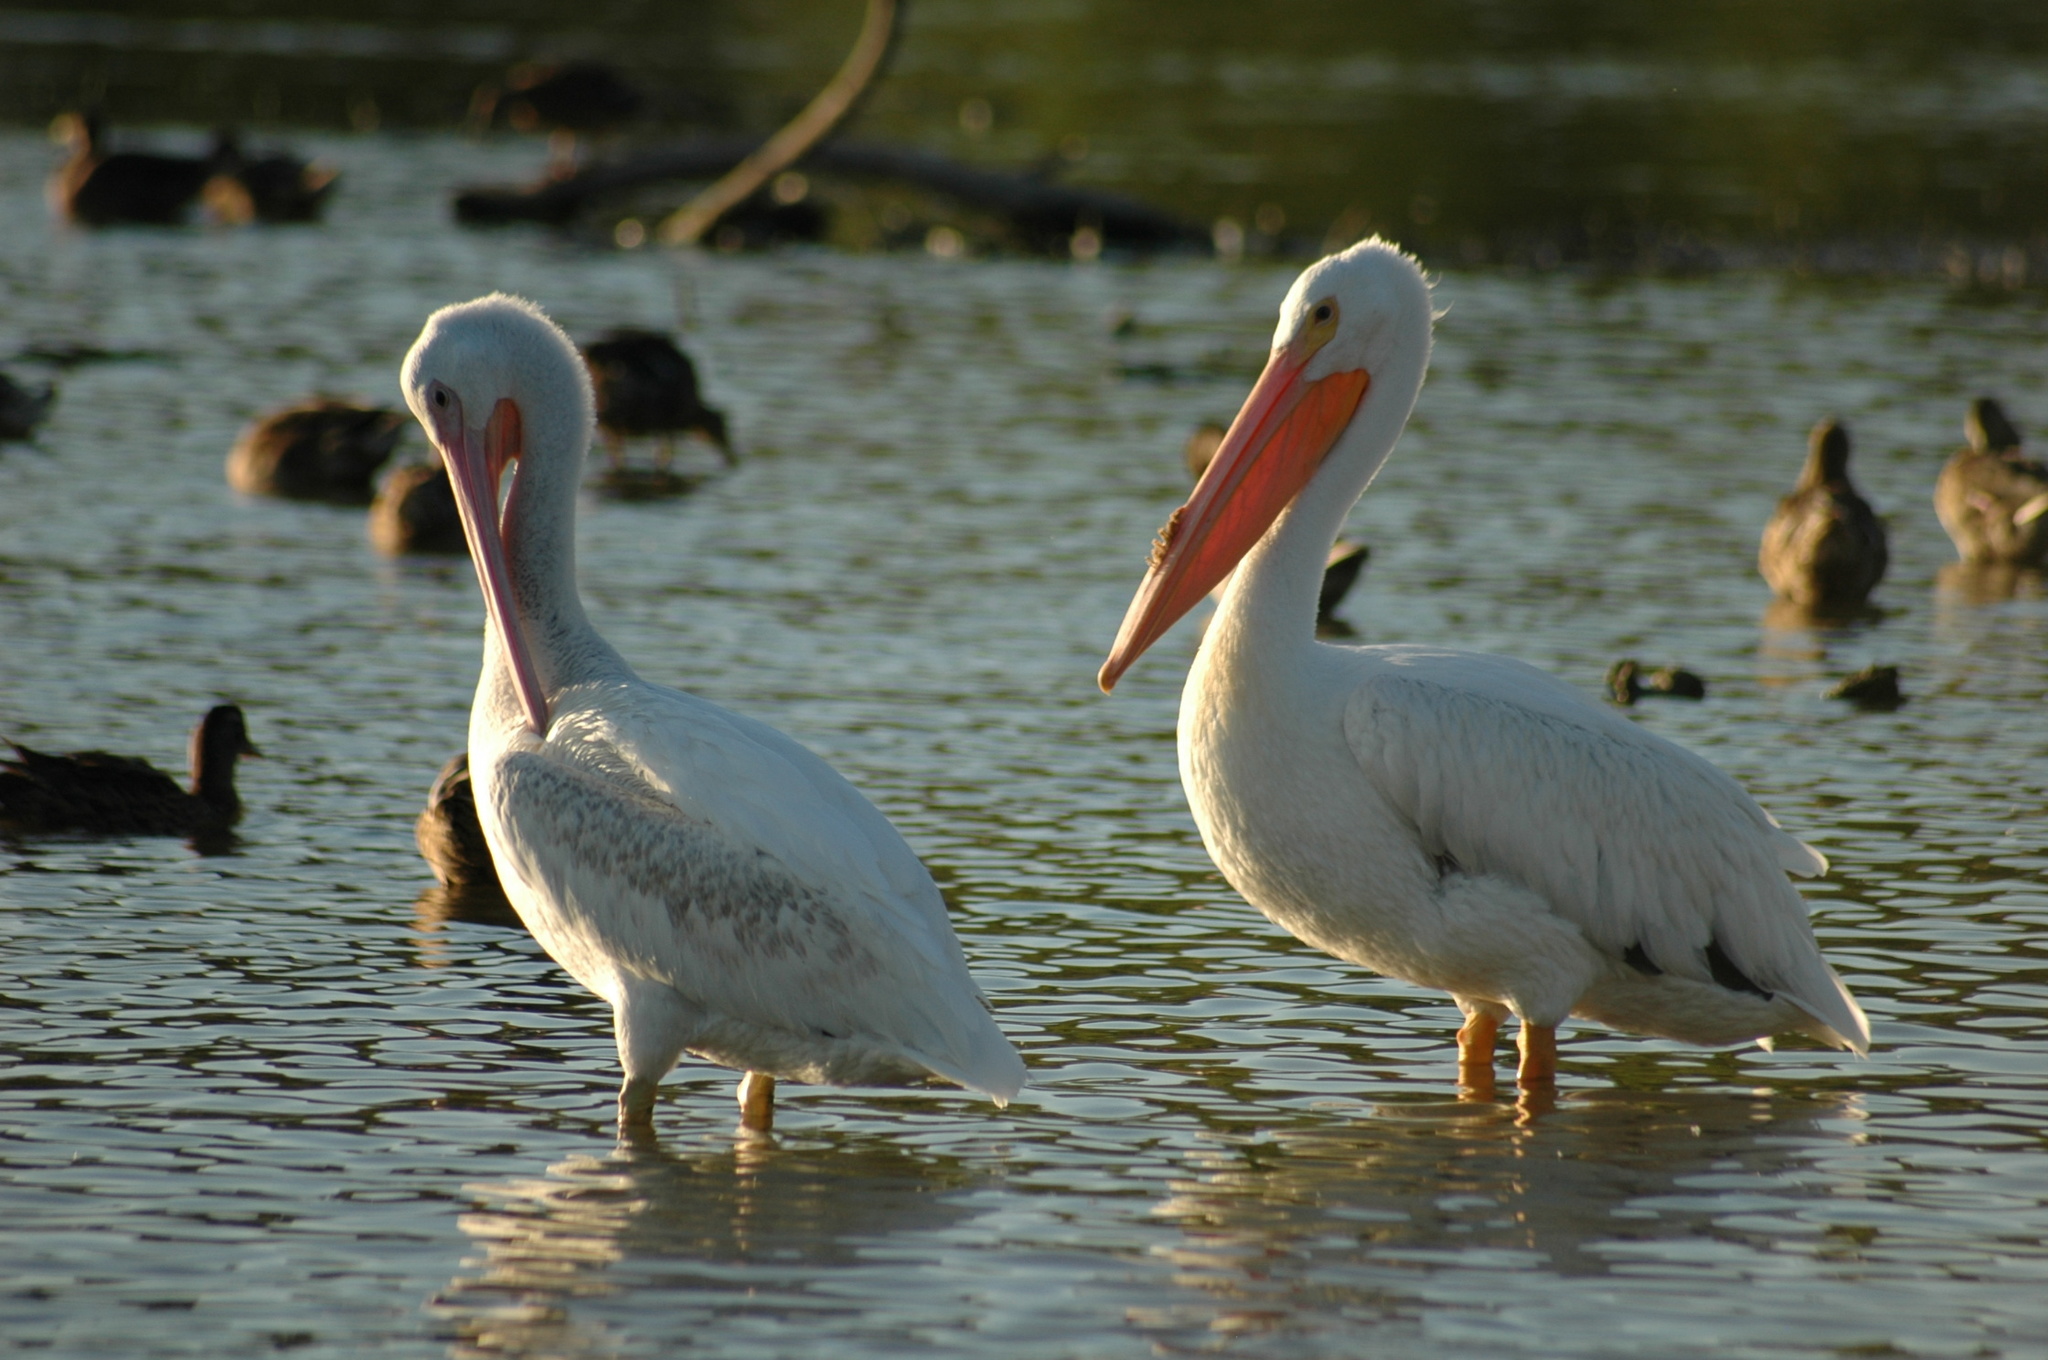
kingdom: Animalia
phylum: Chordata
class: Aves
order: Pelecaniformes
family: Pelecanidae
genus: Pelecanus
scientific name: Pelecanus erythrorhynchos
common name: American white pelican
